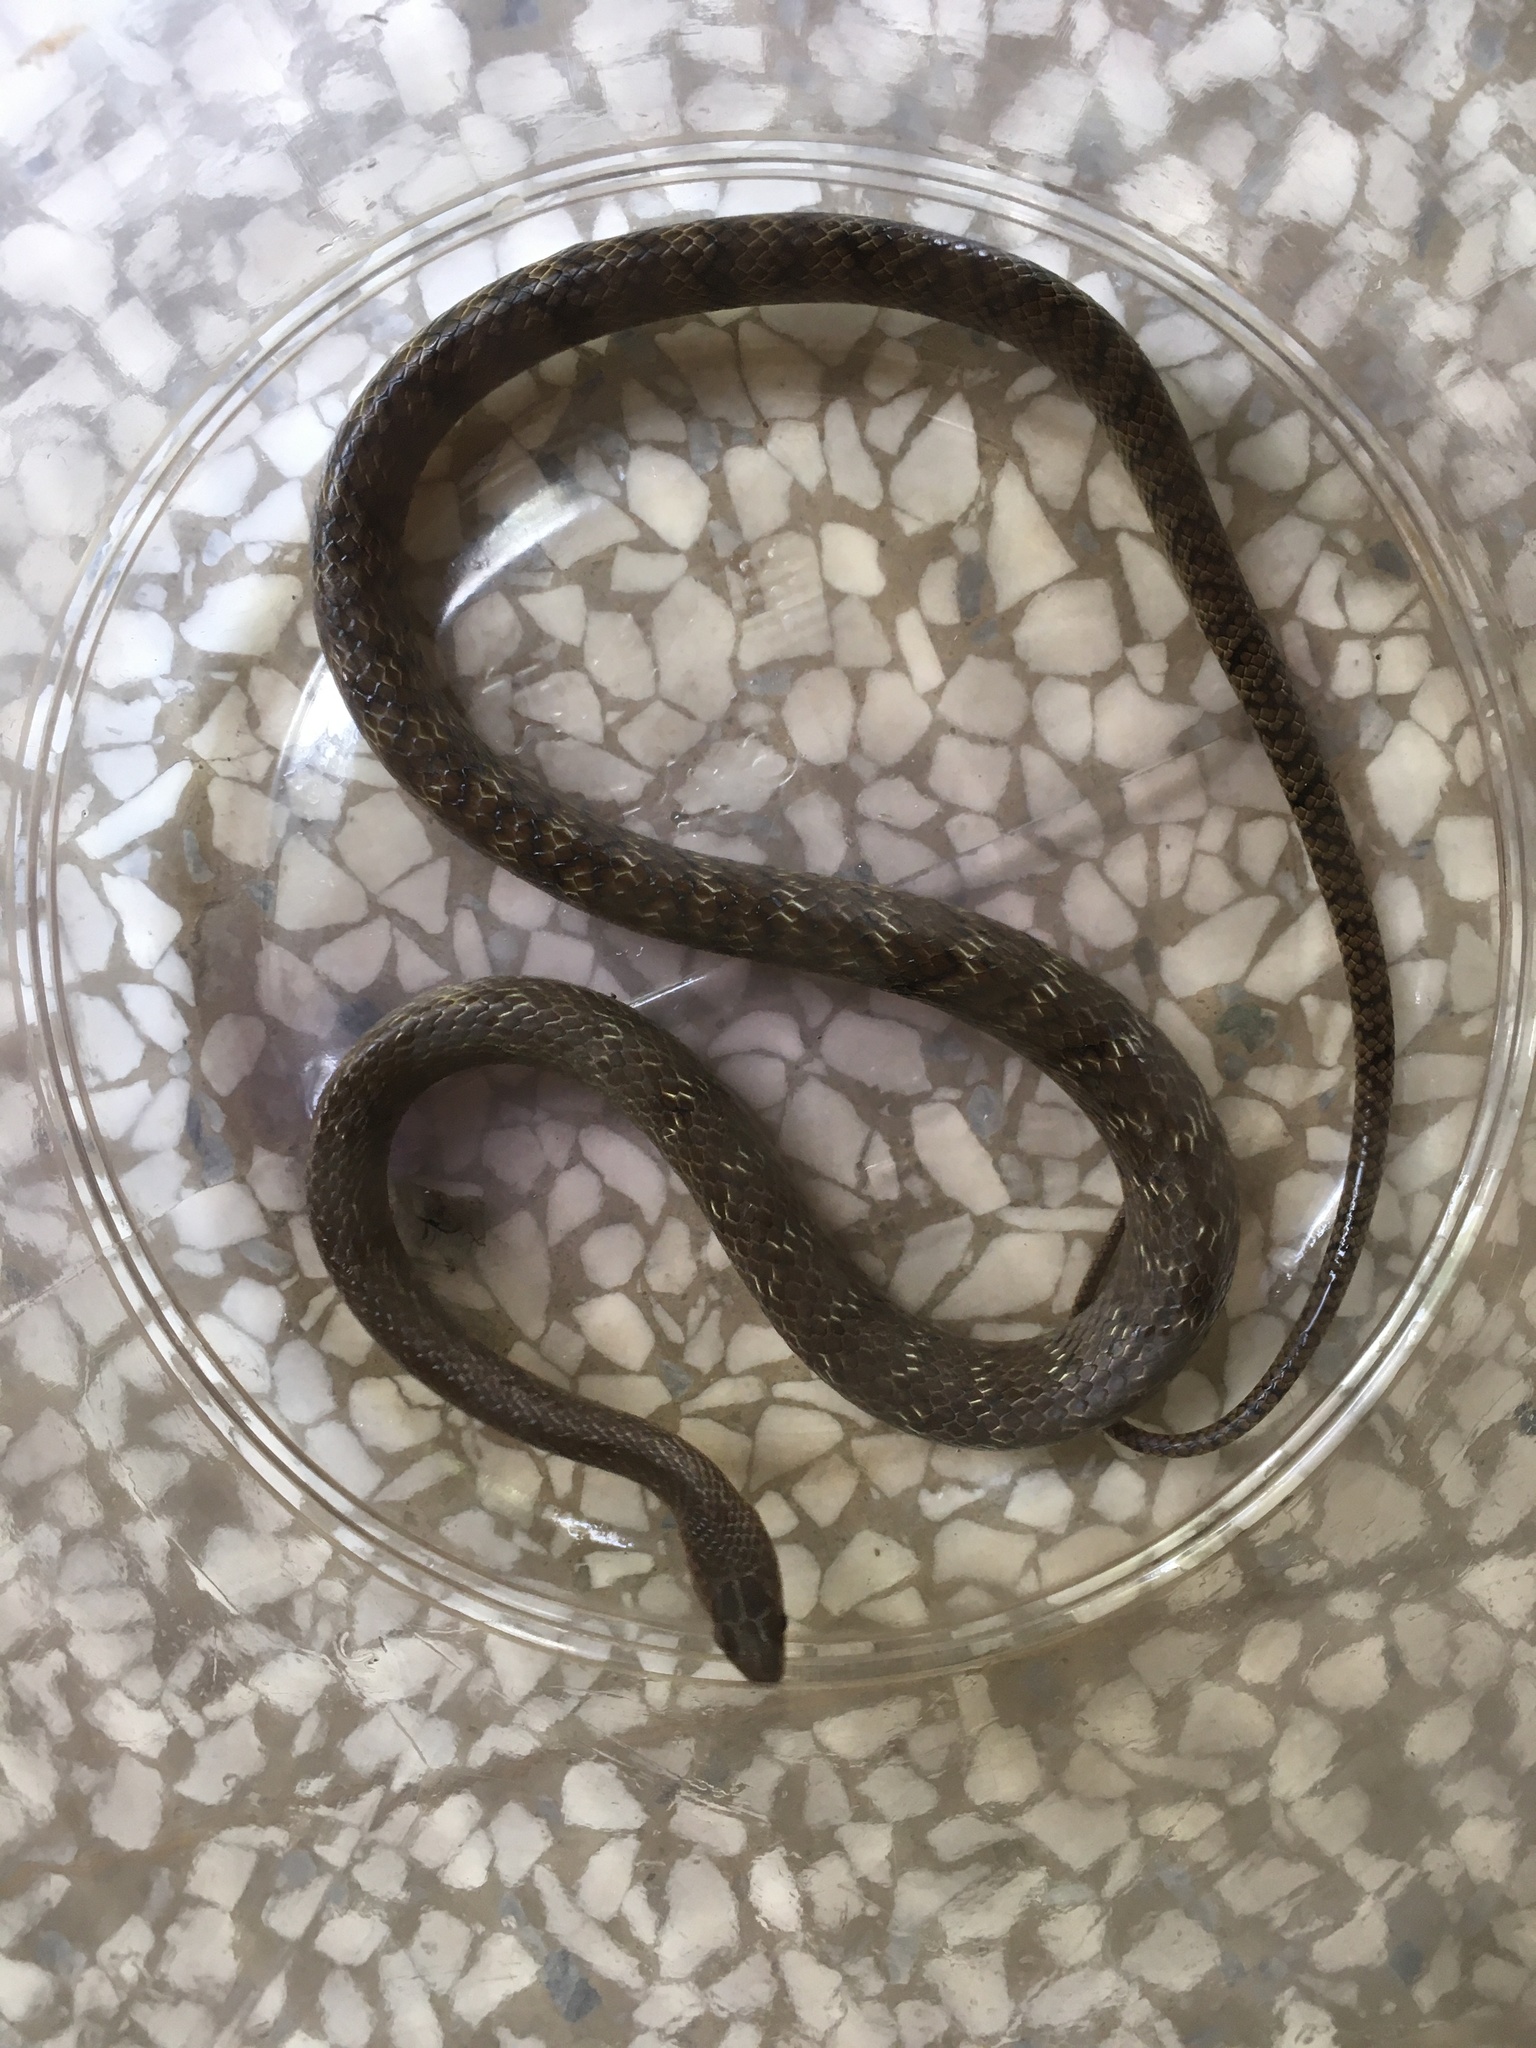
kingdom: Animalia
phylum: Chordata
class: Squamata
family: Colubridae
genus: Ptyas
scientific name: Ptyas mucosa
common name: Oriental ratsnake
